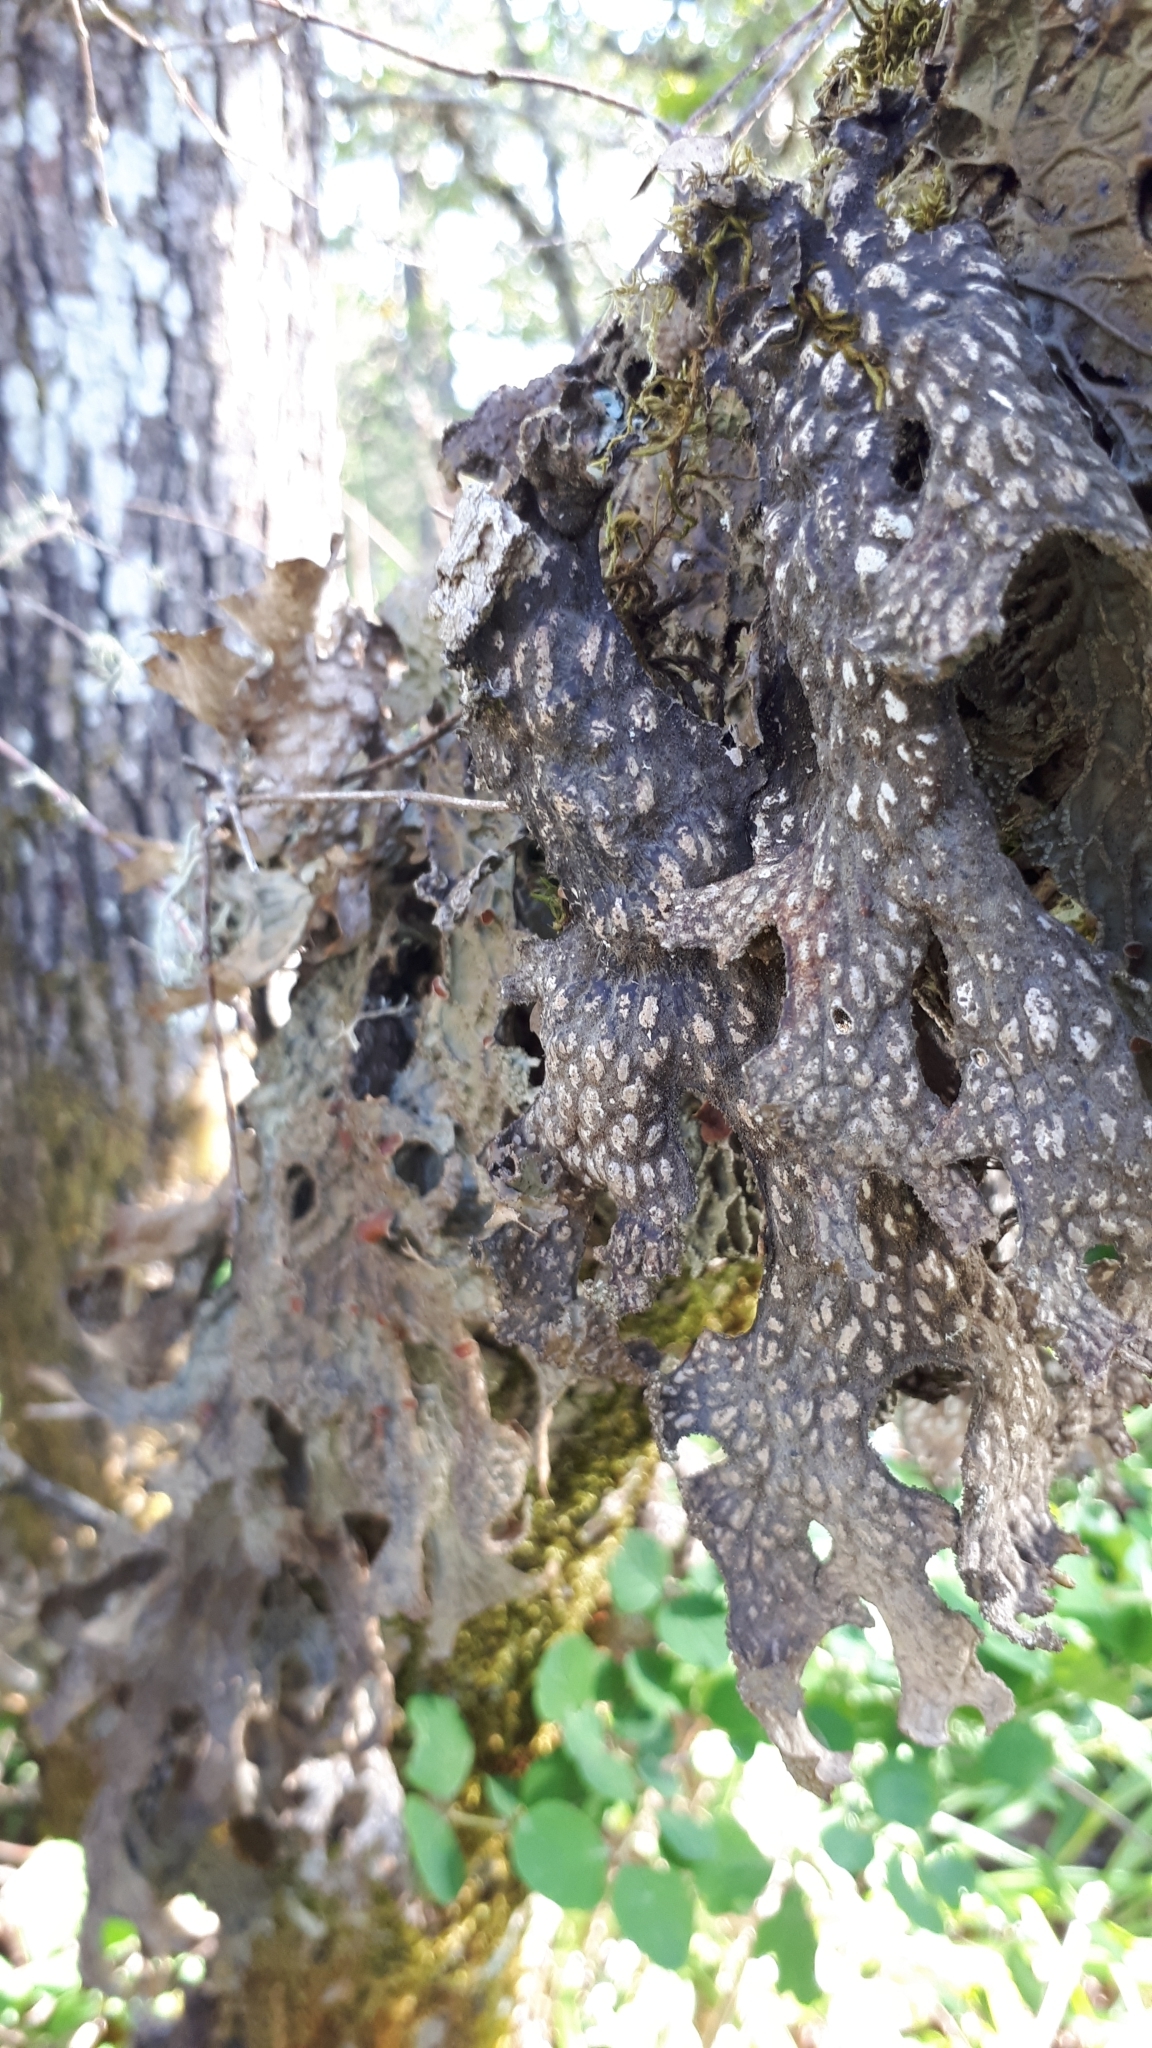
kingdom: Fungi
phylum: Ascomycota
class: Lecanoromycetes
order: Peltigerales
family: Lobariaceae
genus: Lobaria
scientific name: Lobaria pulmonaria
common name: Lungwort
